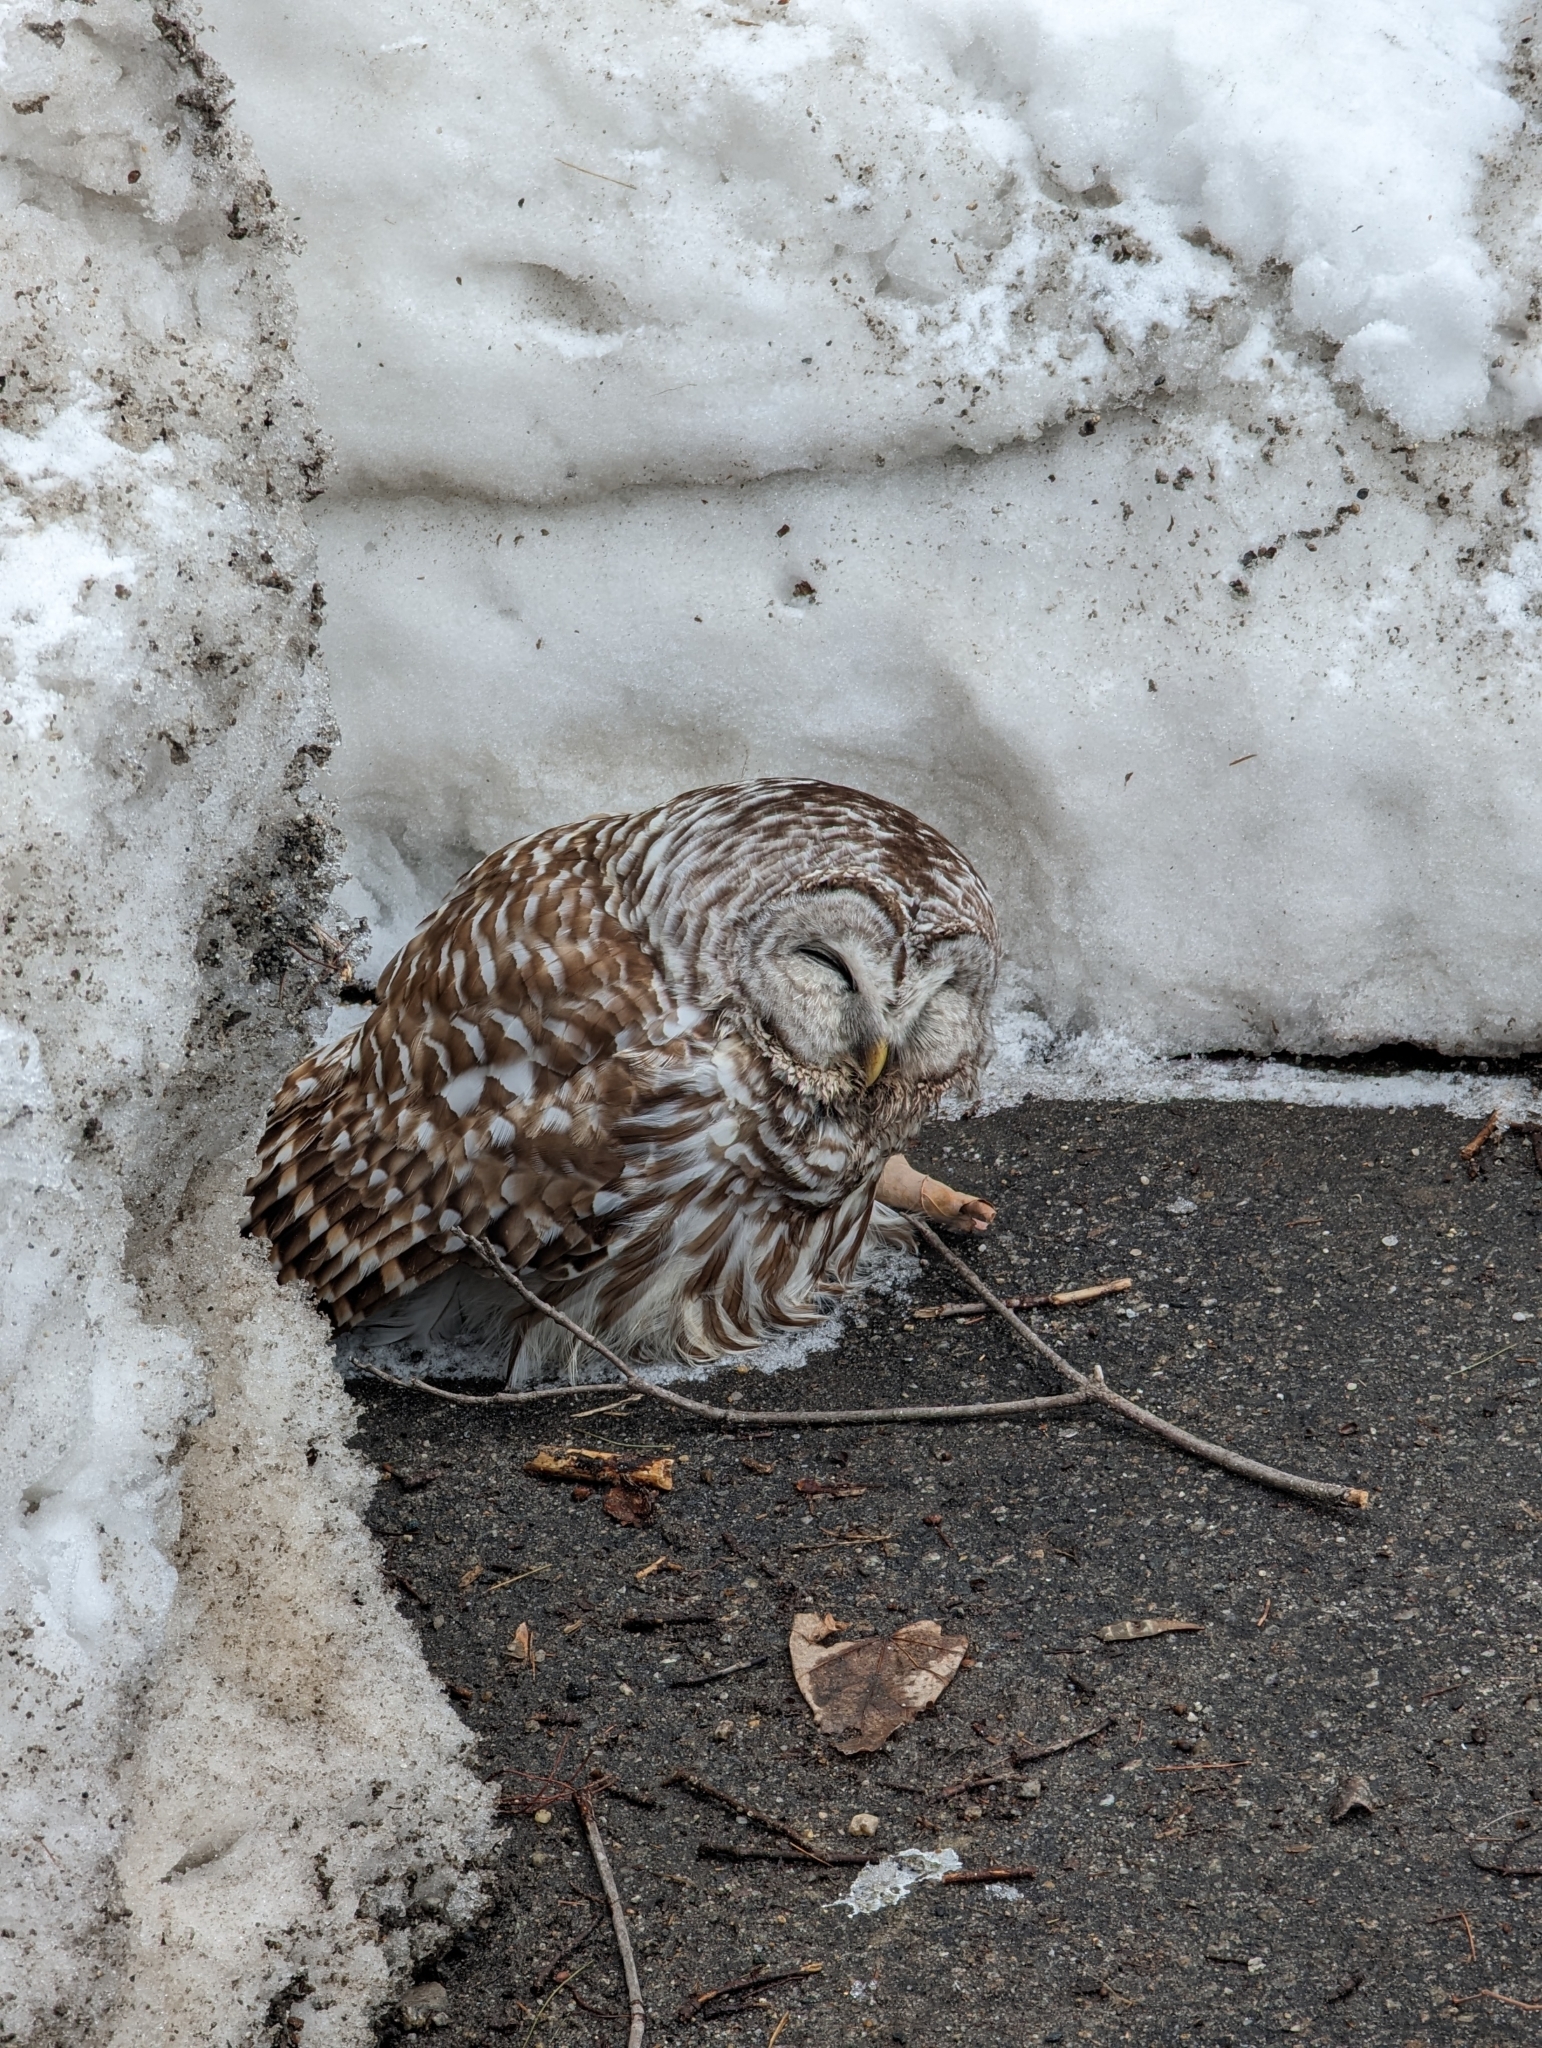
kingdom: Animalia
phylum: Chordata
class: Aves
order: Strigiformes
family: Strigidae
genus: Strix
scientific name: Strix varia
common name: Barred owl
